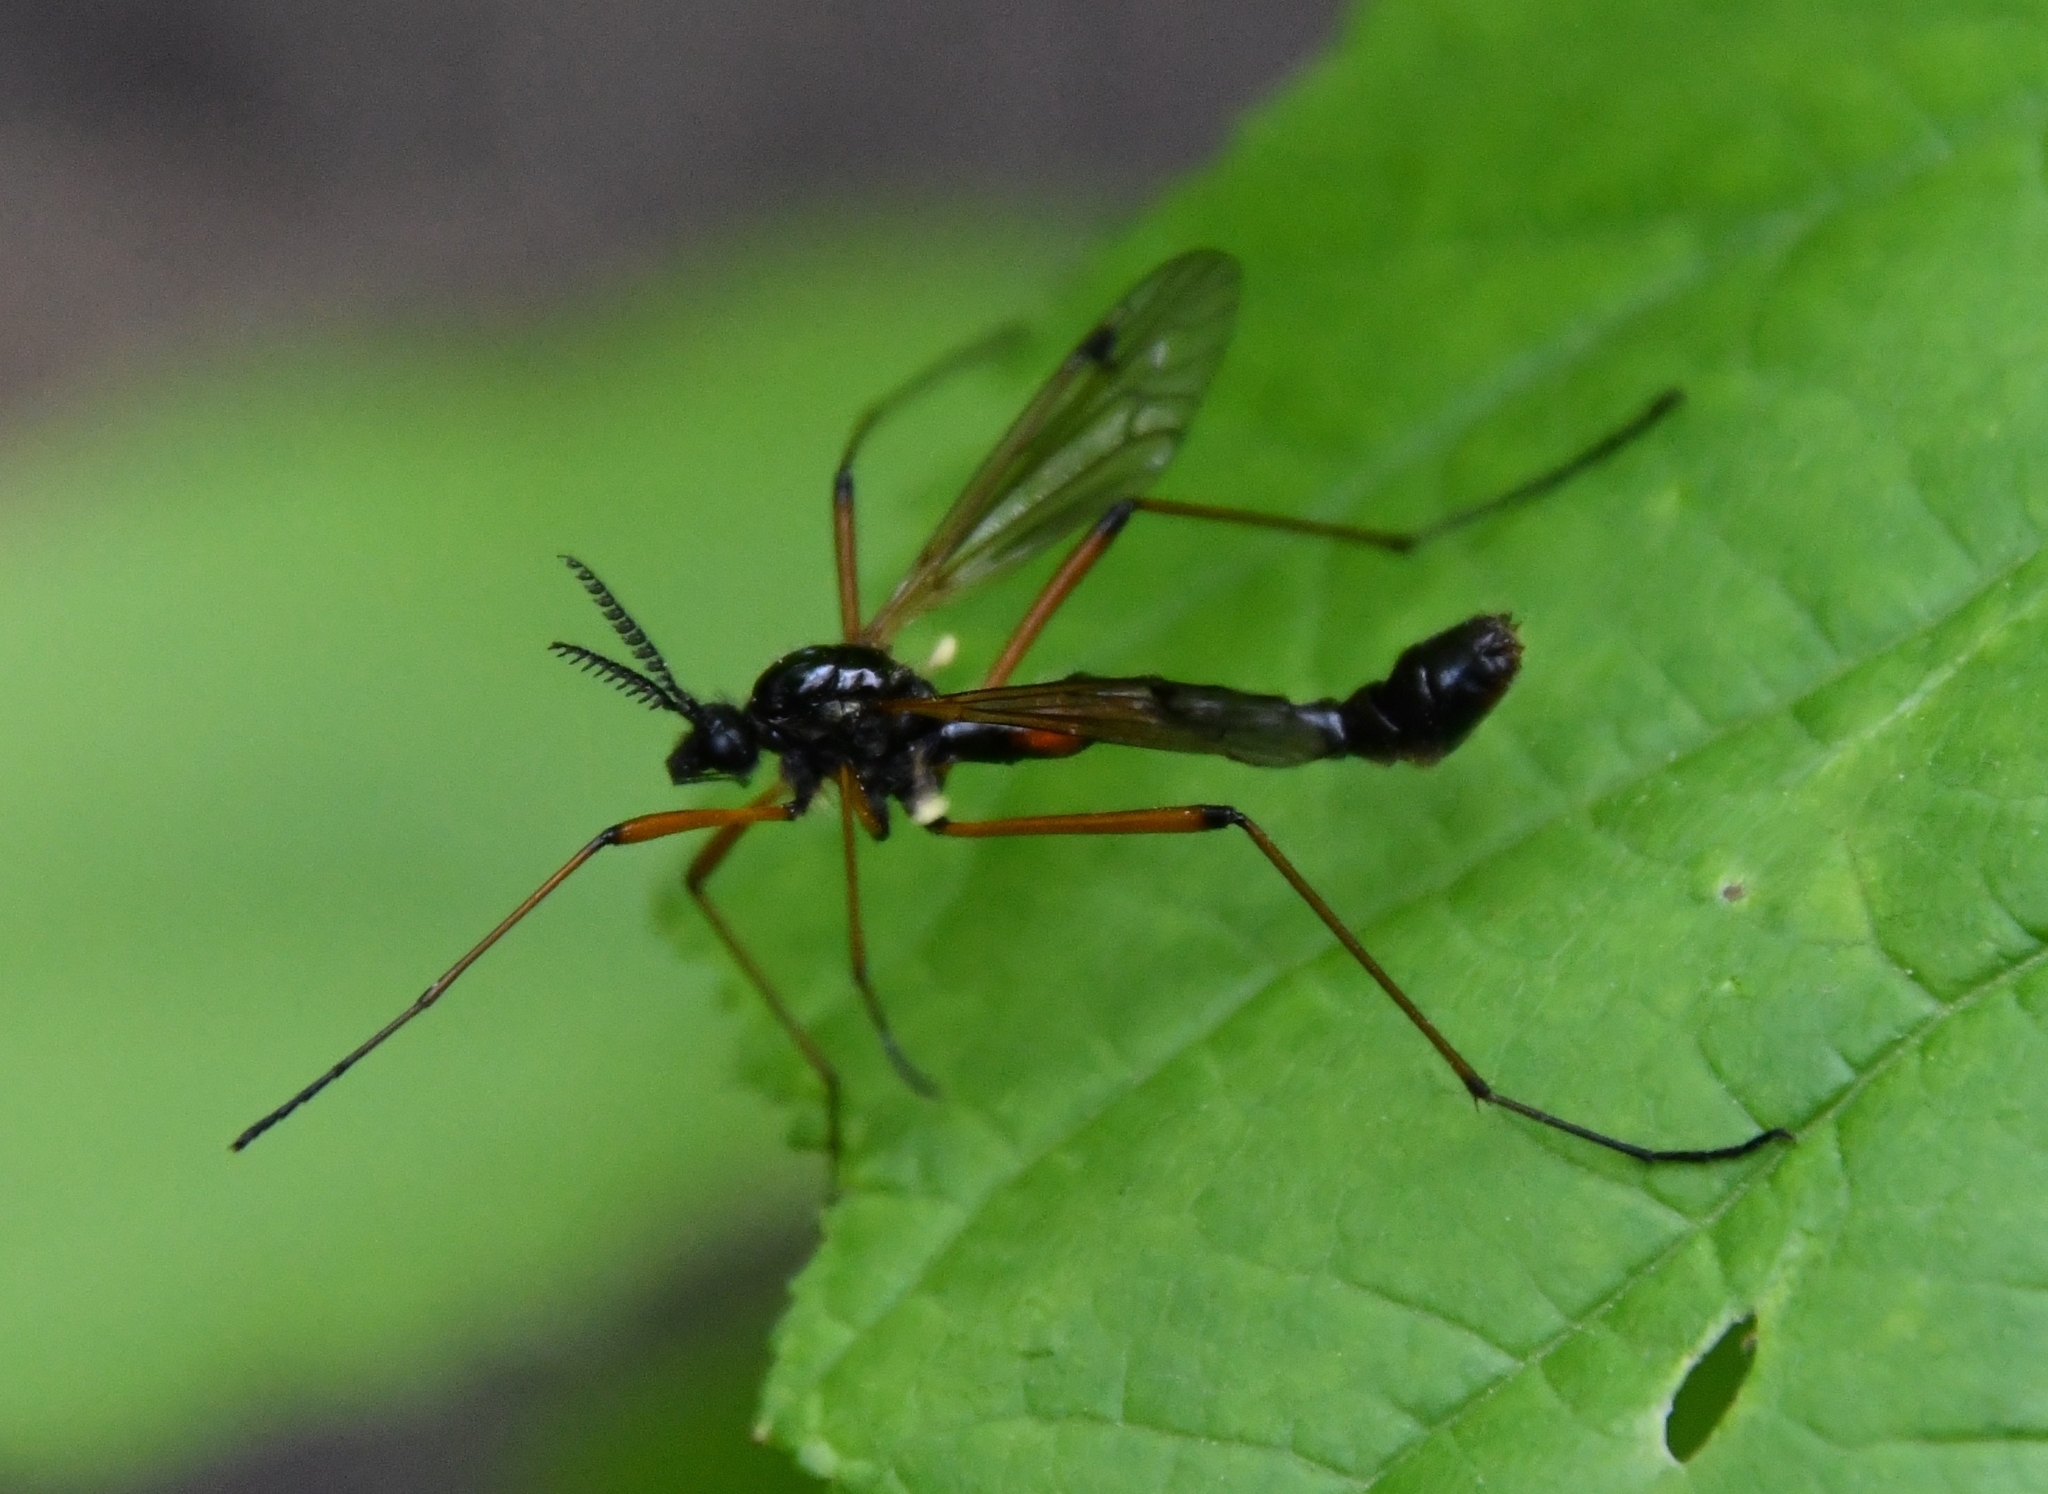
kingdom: Animalia
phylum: Arthropoda
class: Insecta
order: Diptera
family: Tipulidae
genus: Tanyptera
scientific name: Tanyptera nigricornis
